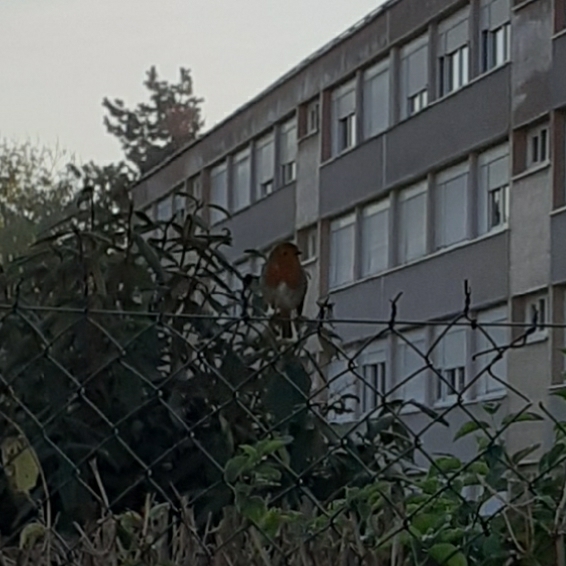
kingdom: Animalia
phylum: Chordata
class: Aves
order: Passeriformes
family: Muscicapidae
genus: Erithacus
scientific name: Erithacus rubecula
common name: European robin
